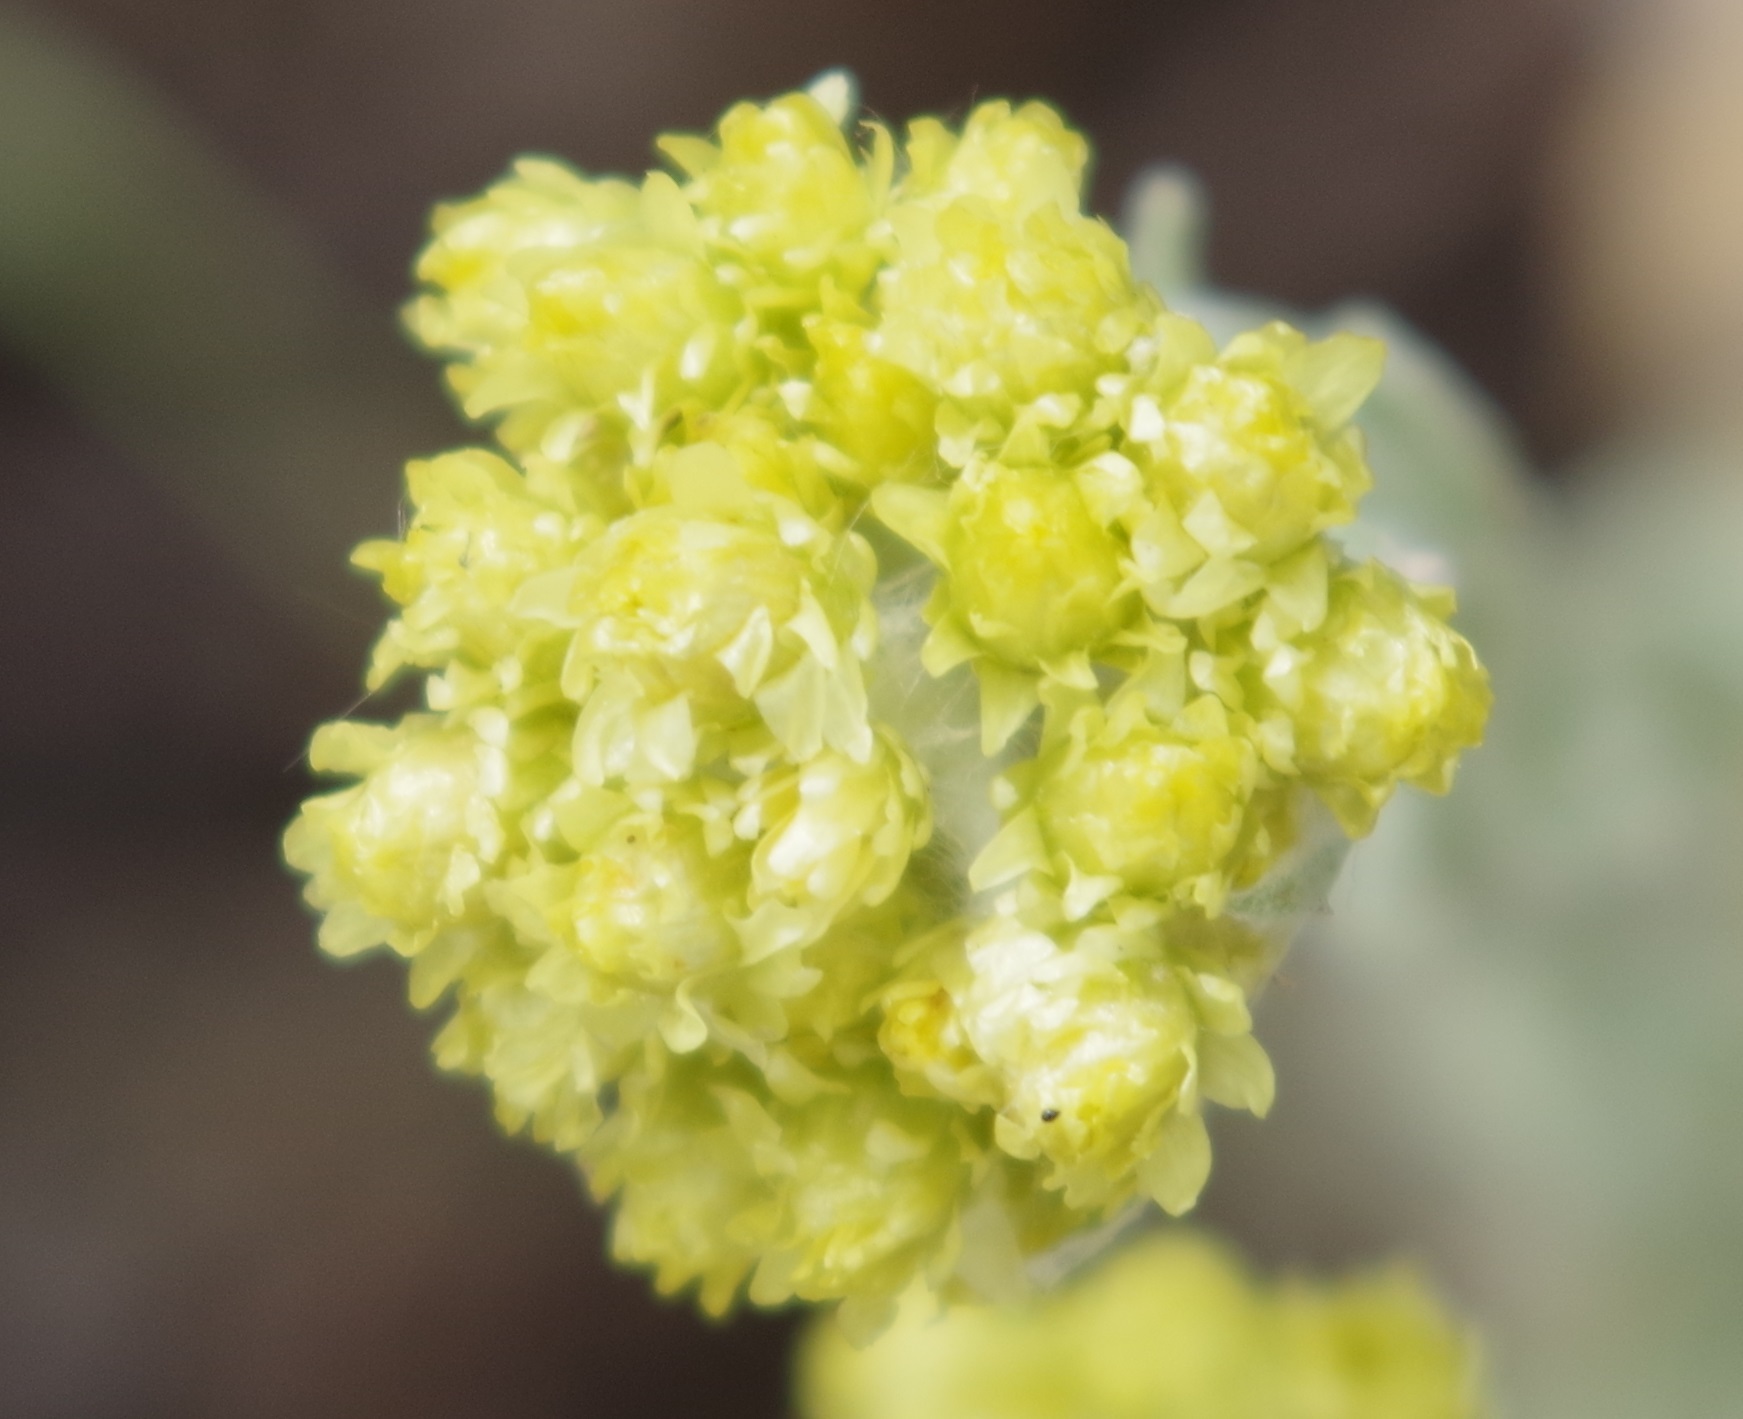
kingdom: Plantae
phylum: Tracheophyta
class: Magnoliopsida
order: Asterales
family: Asteraceae
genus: Helichrysum
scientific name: Helichrysum arenarium
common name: Strawflower
